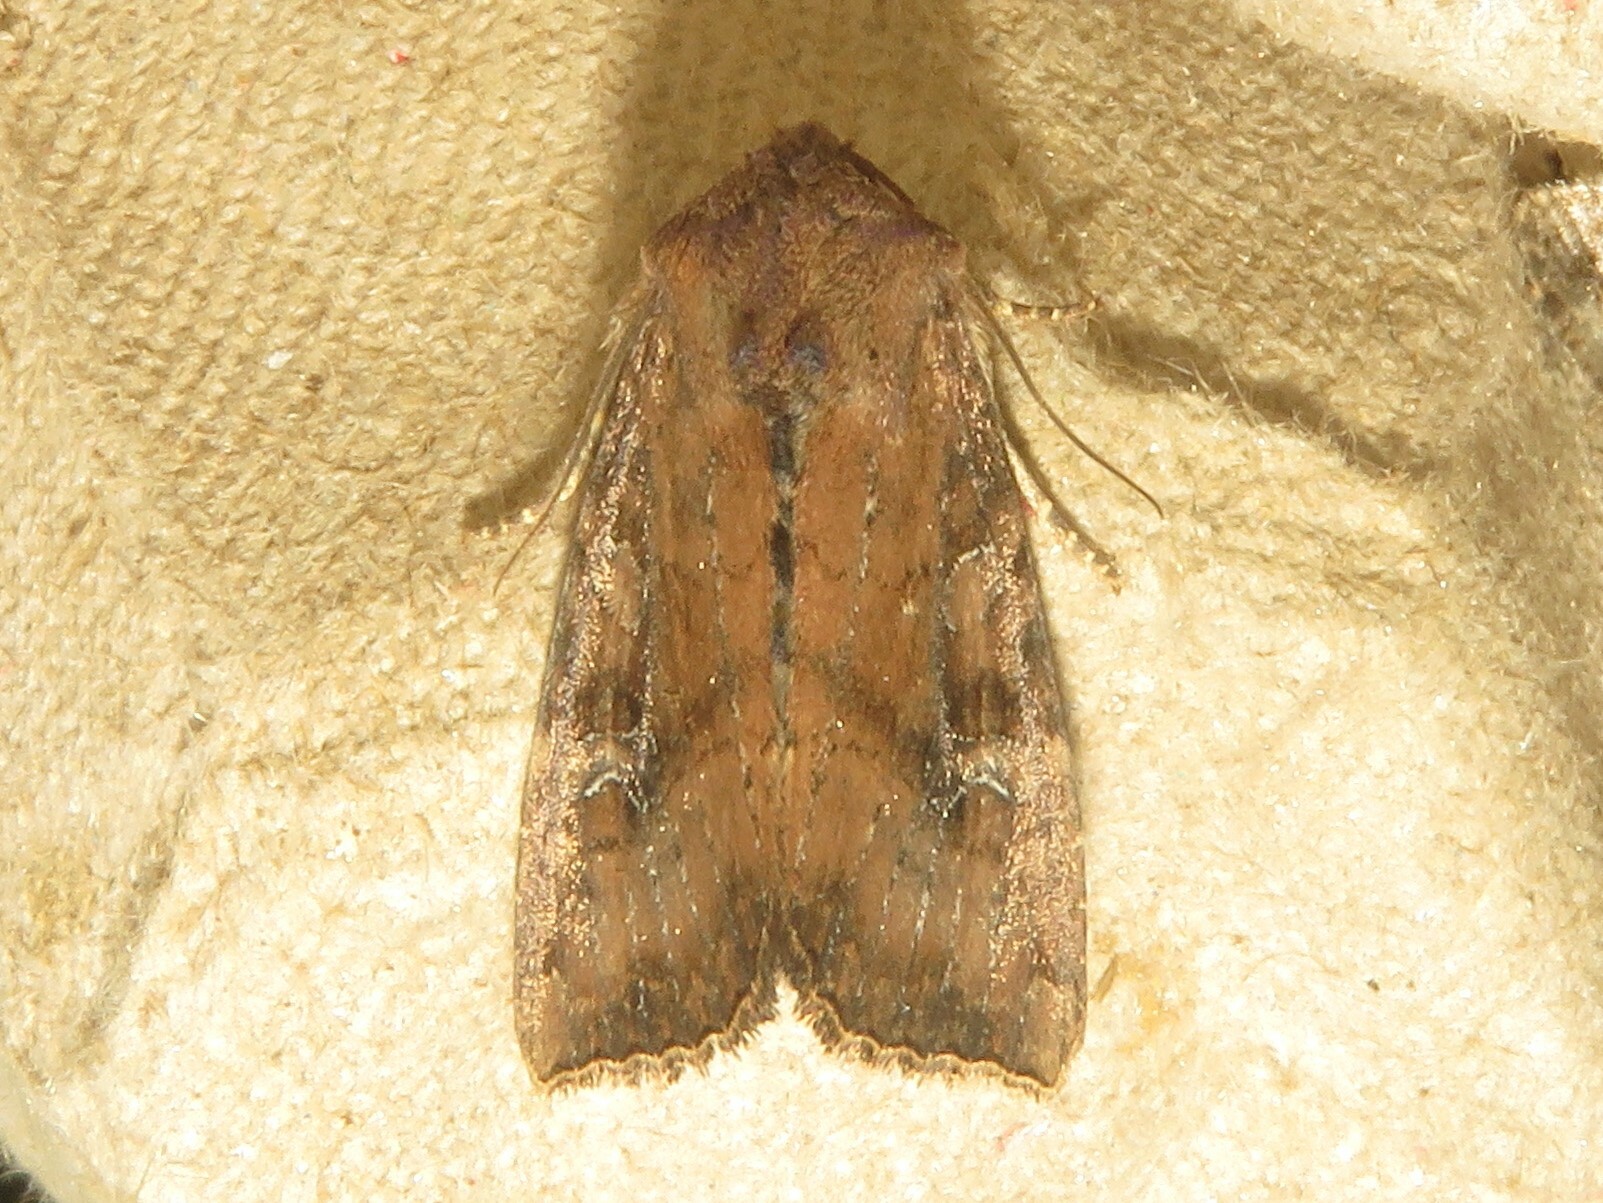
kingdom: Animalia
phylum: Arthropoda
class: Insecta
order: Lepidoptera
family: Noctuidae
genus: Loscopia
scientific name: Loscopia velata
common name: Veiled ear moth
